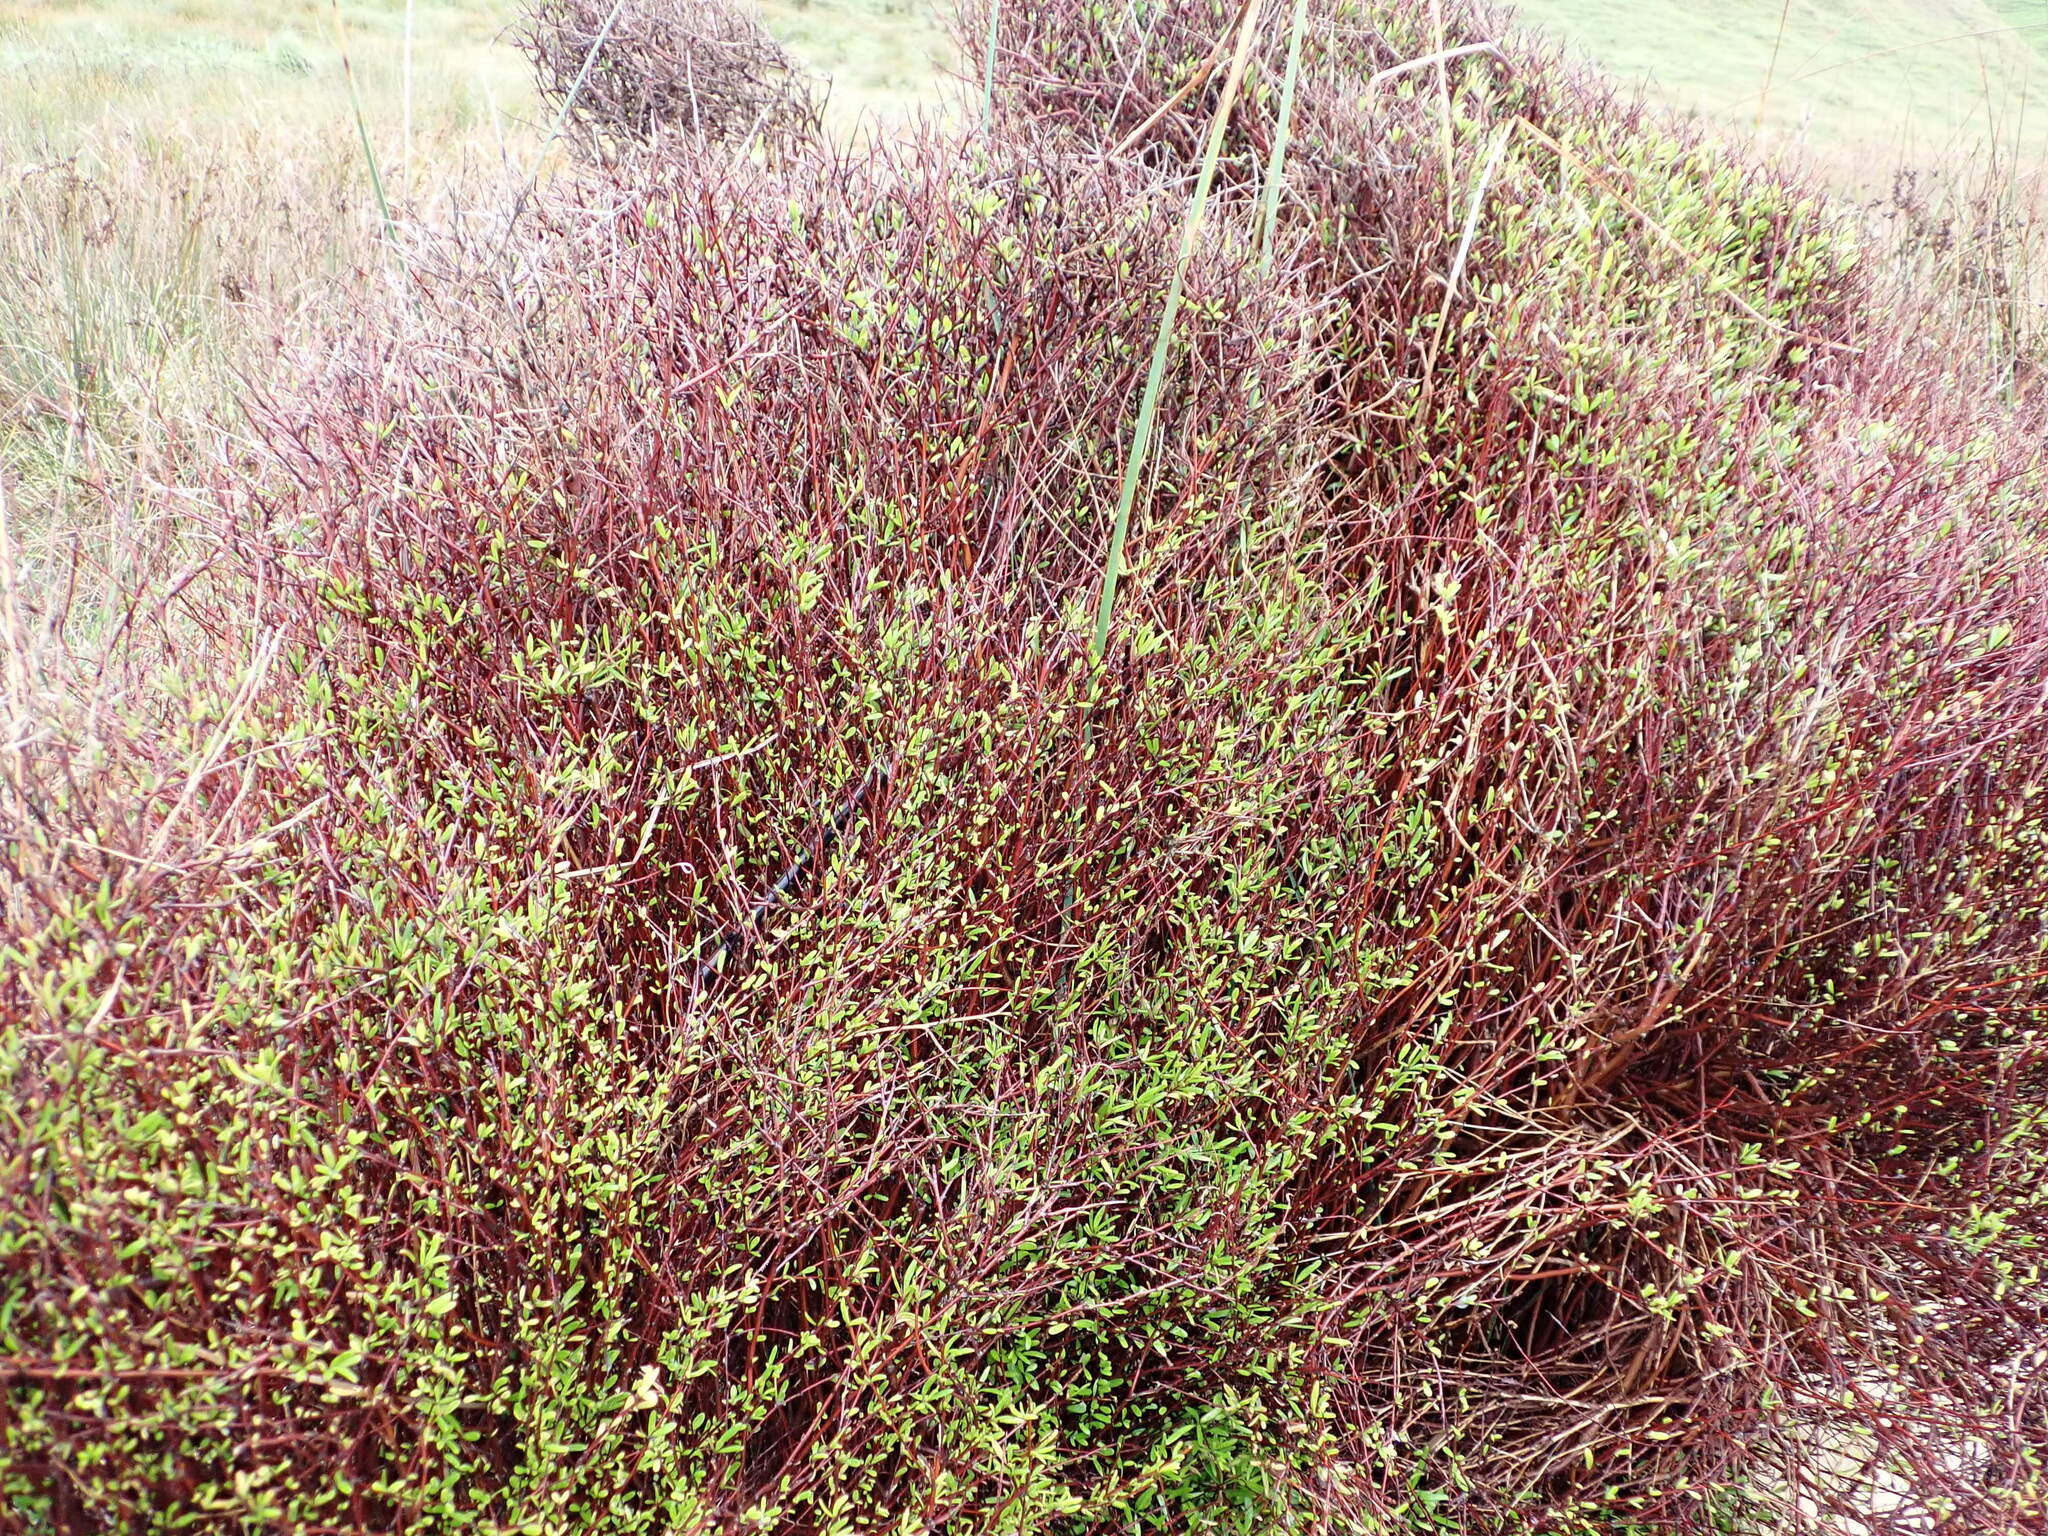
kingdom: Plantae
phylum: Tracheophyta
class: Magnoliopsida
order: Malvales
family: Malvaceae
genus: Plagianthus
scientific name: Plagianthus divaricatus
